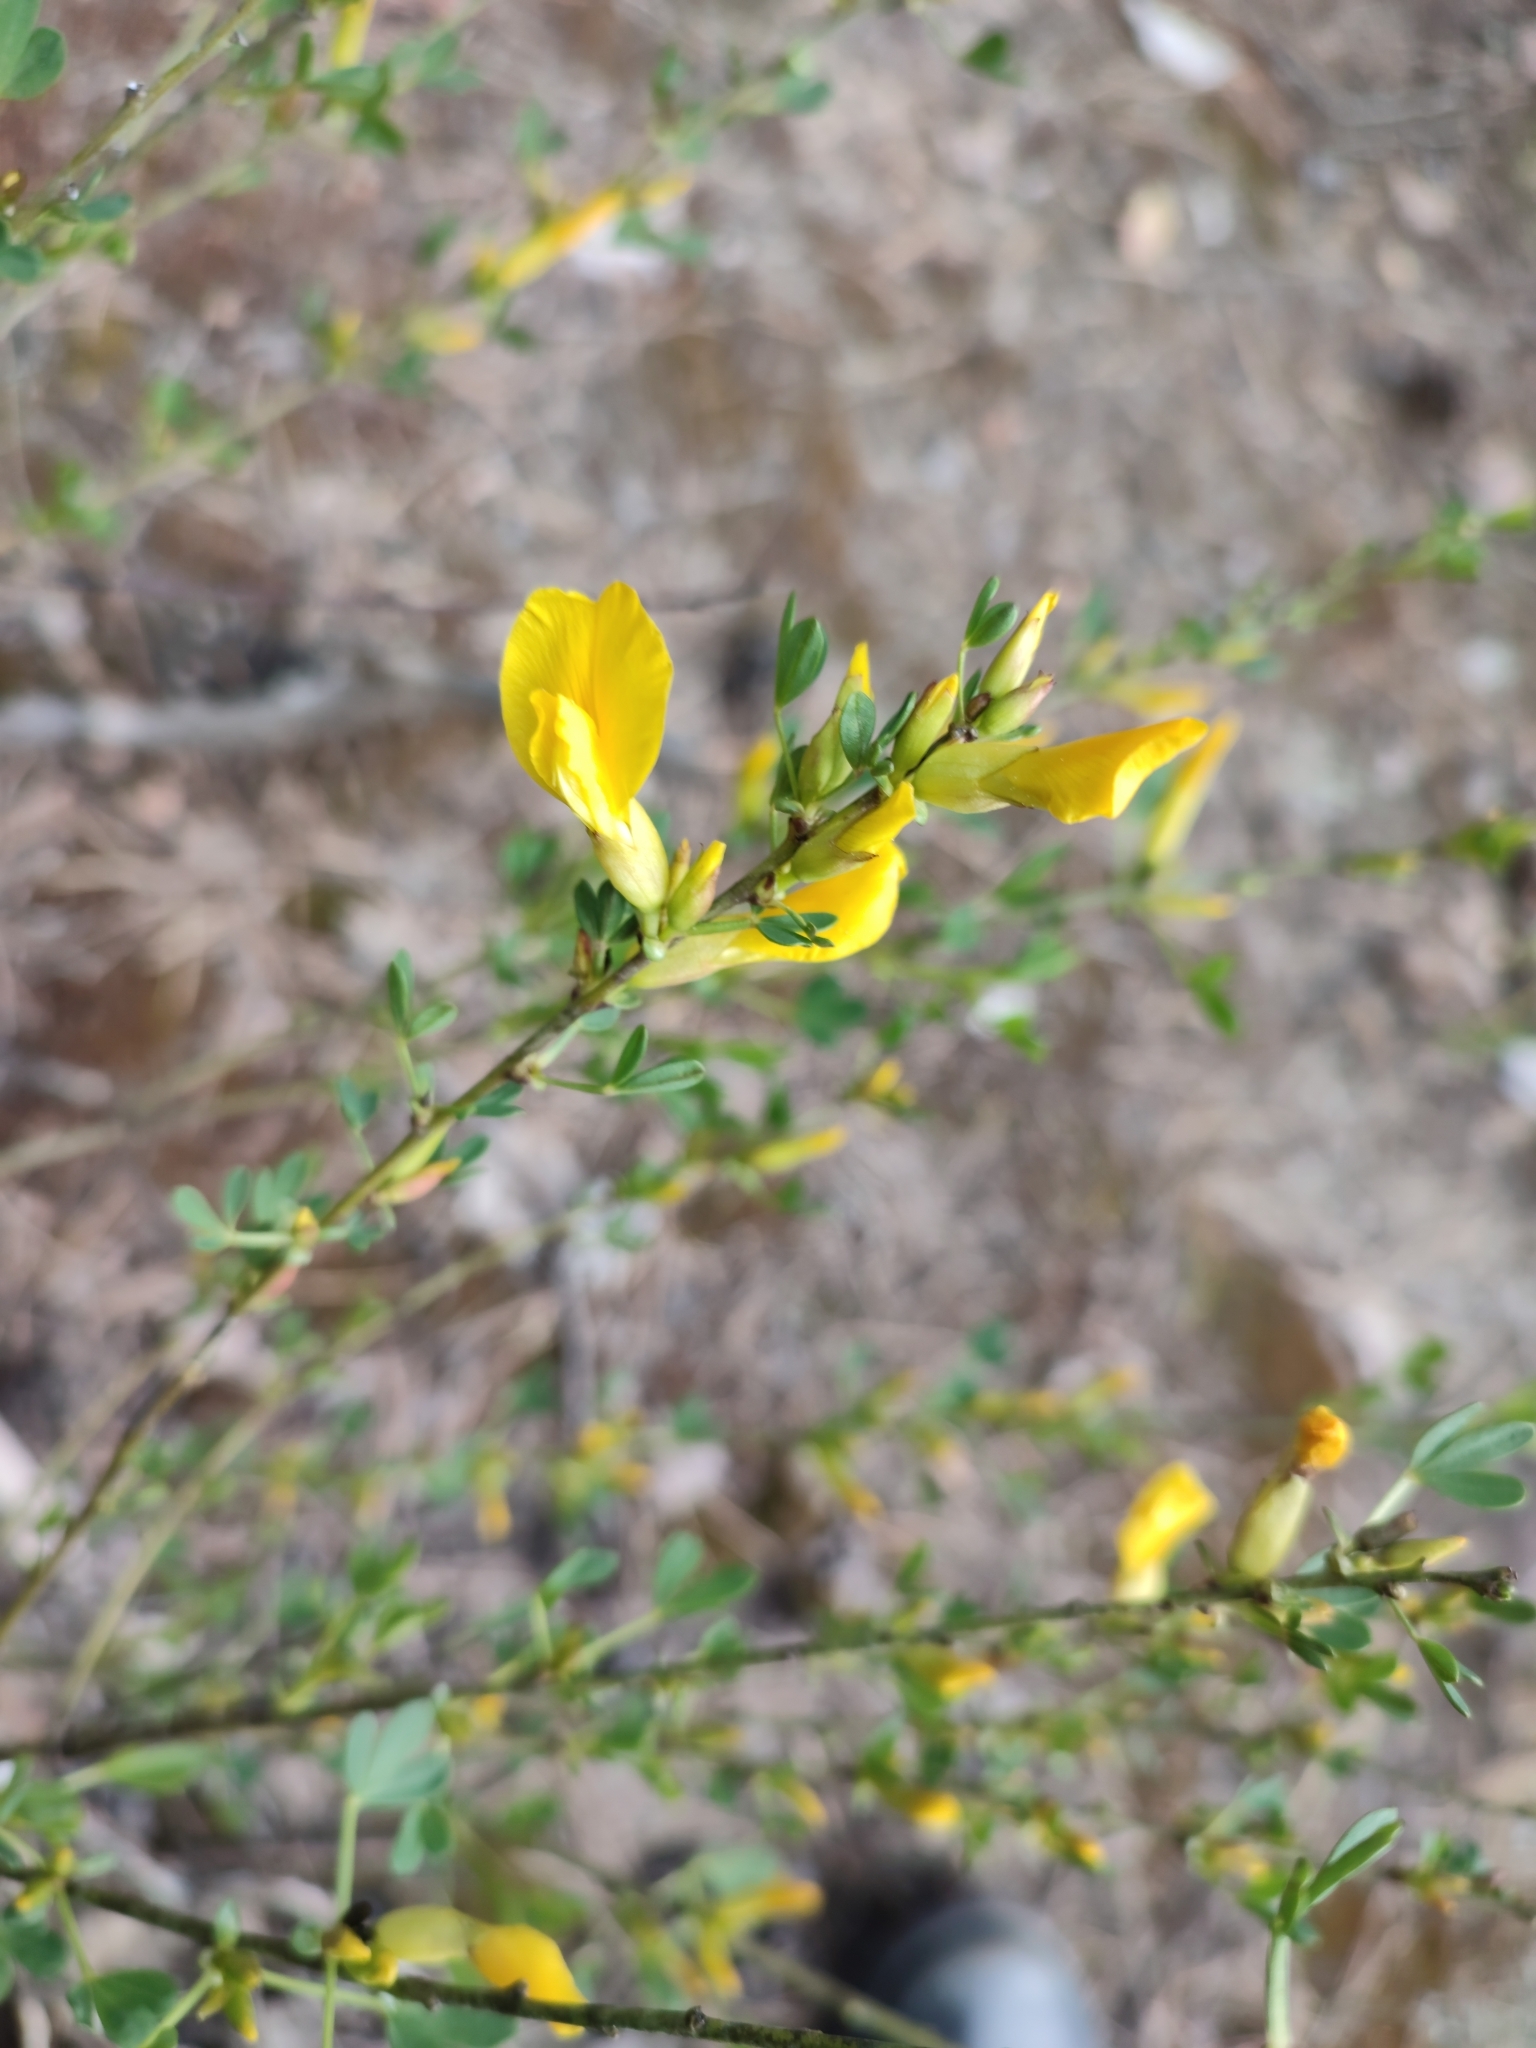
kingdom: Plantae
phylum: Tracheophyta
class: Magnoliopsida
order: Fabales
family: Fabaceae
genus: Chamaecytisus
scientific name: Chamaecytisus ruthenicus
